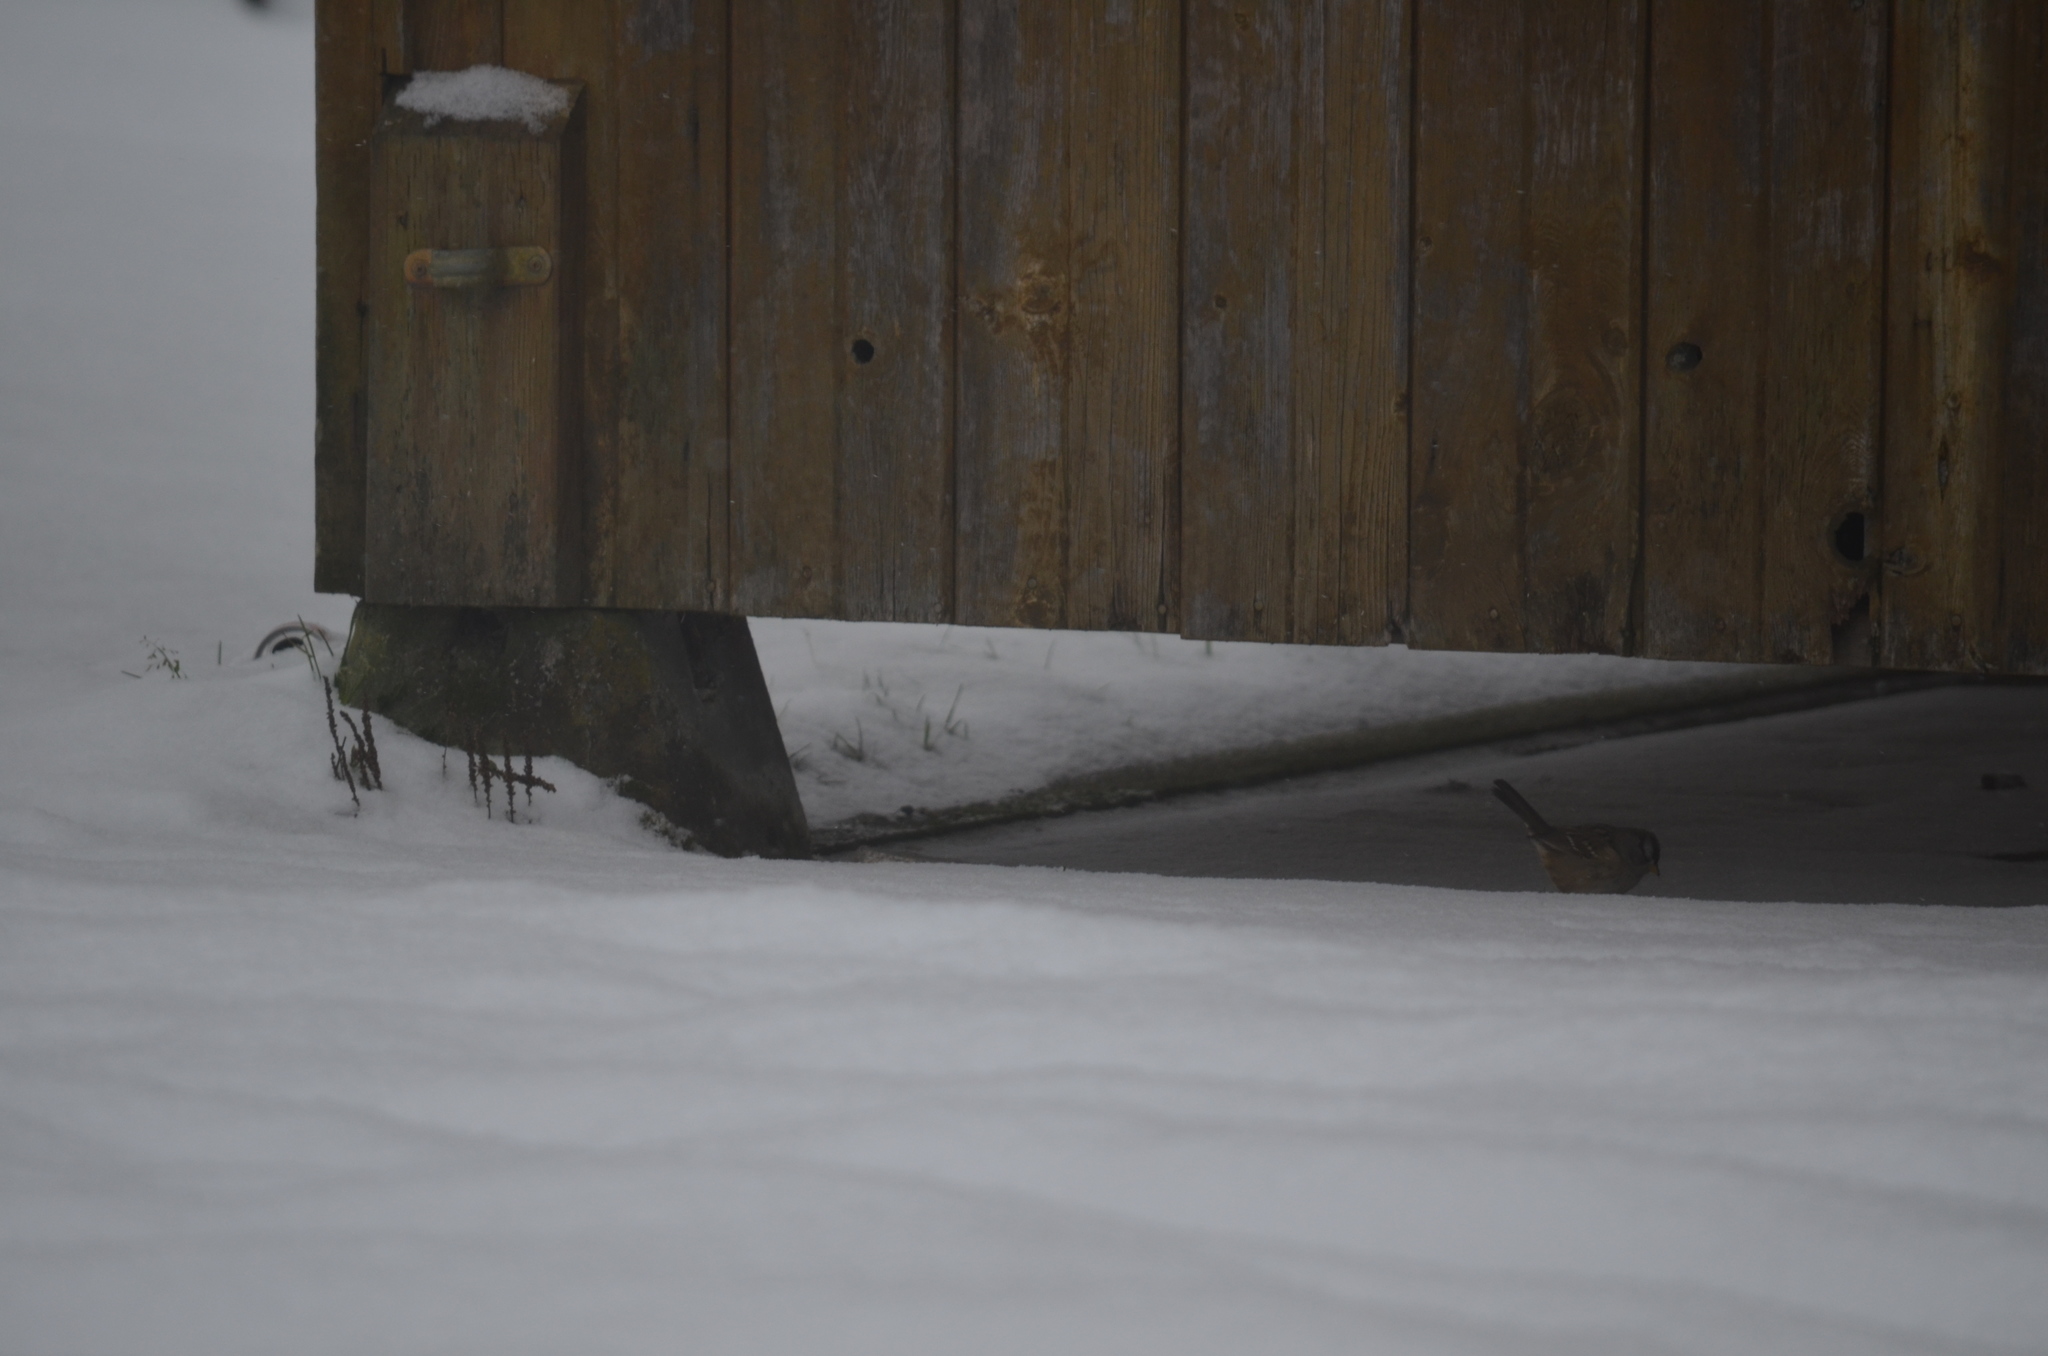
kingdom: Animalia
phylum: Chordata
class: Aves
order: Passeriformes
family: Passerellidae
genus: Zonotrichia
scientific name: Zonotrichia leucophrys
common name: White-crowned sparrow
